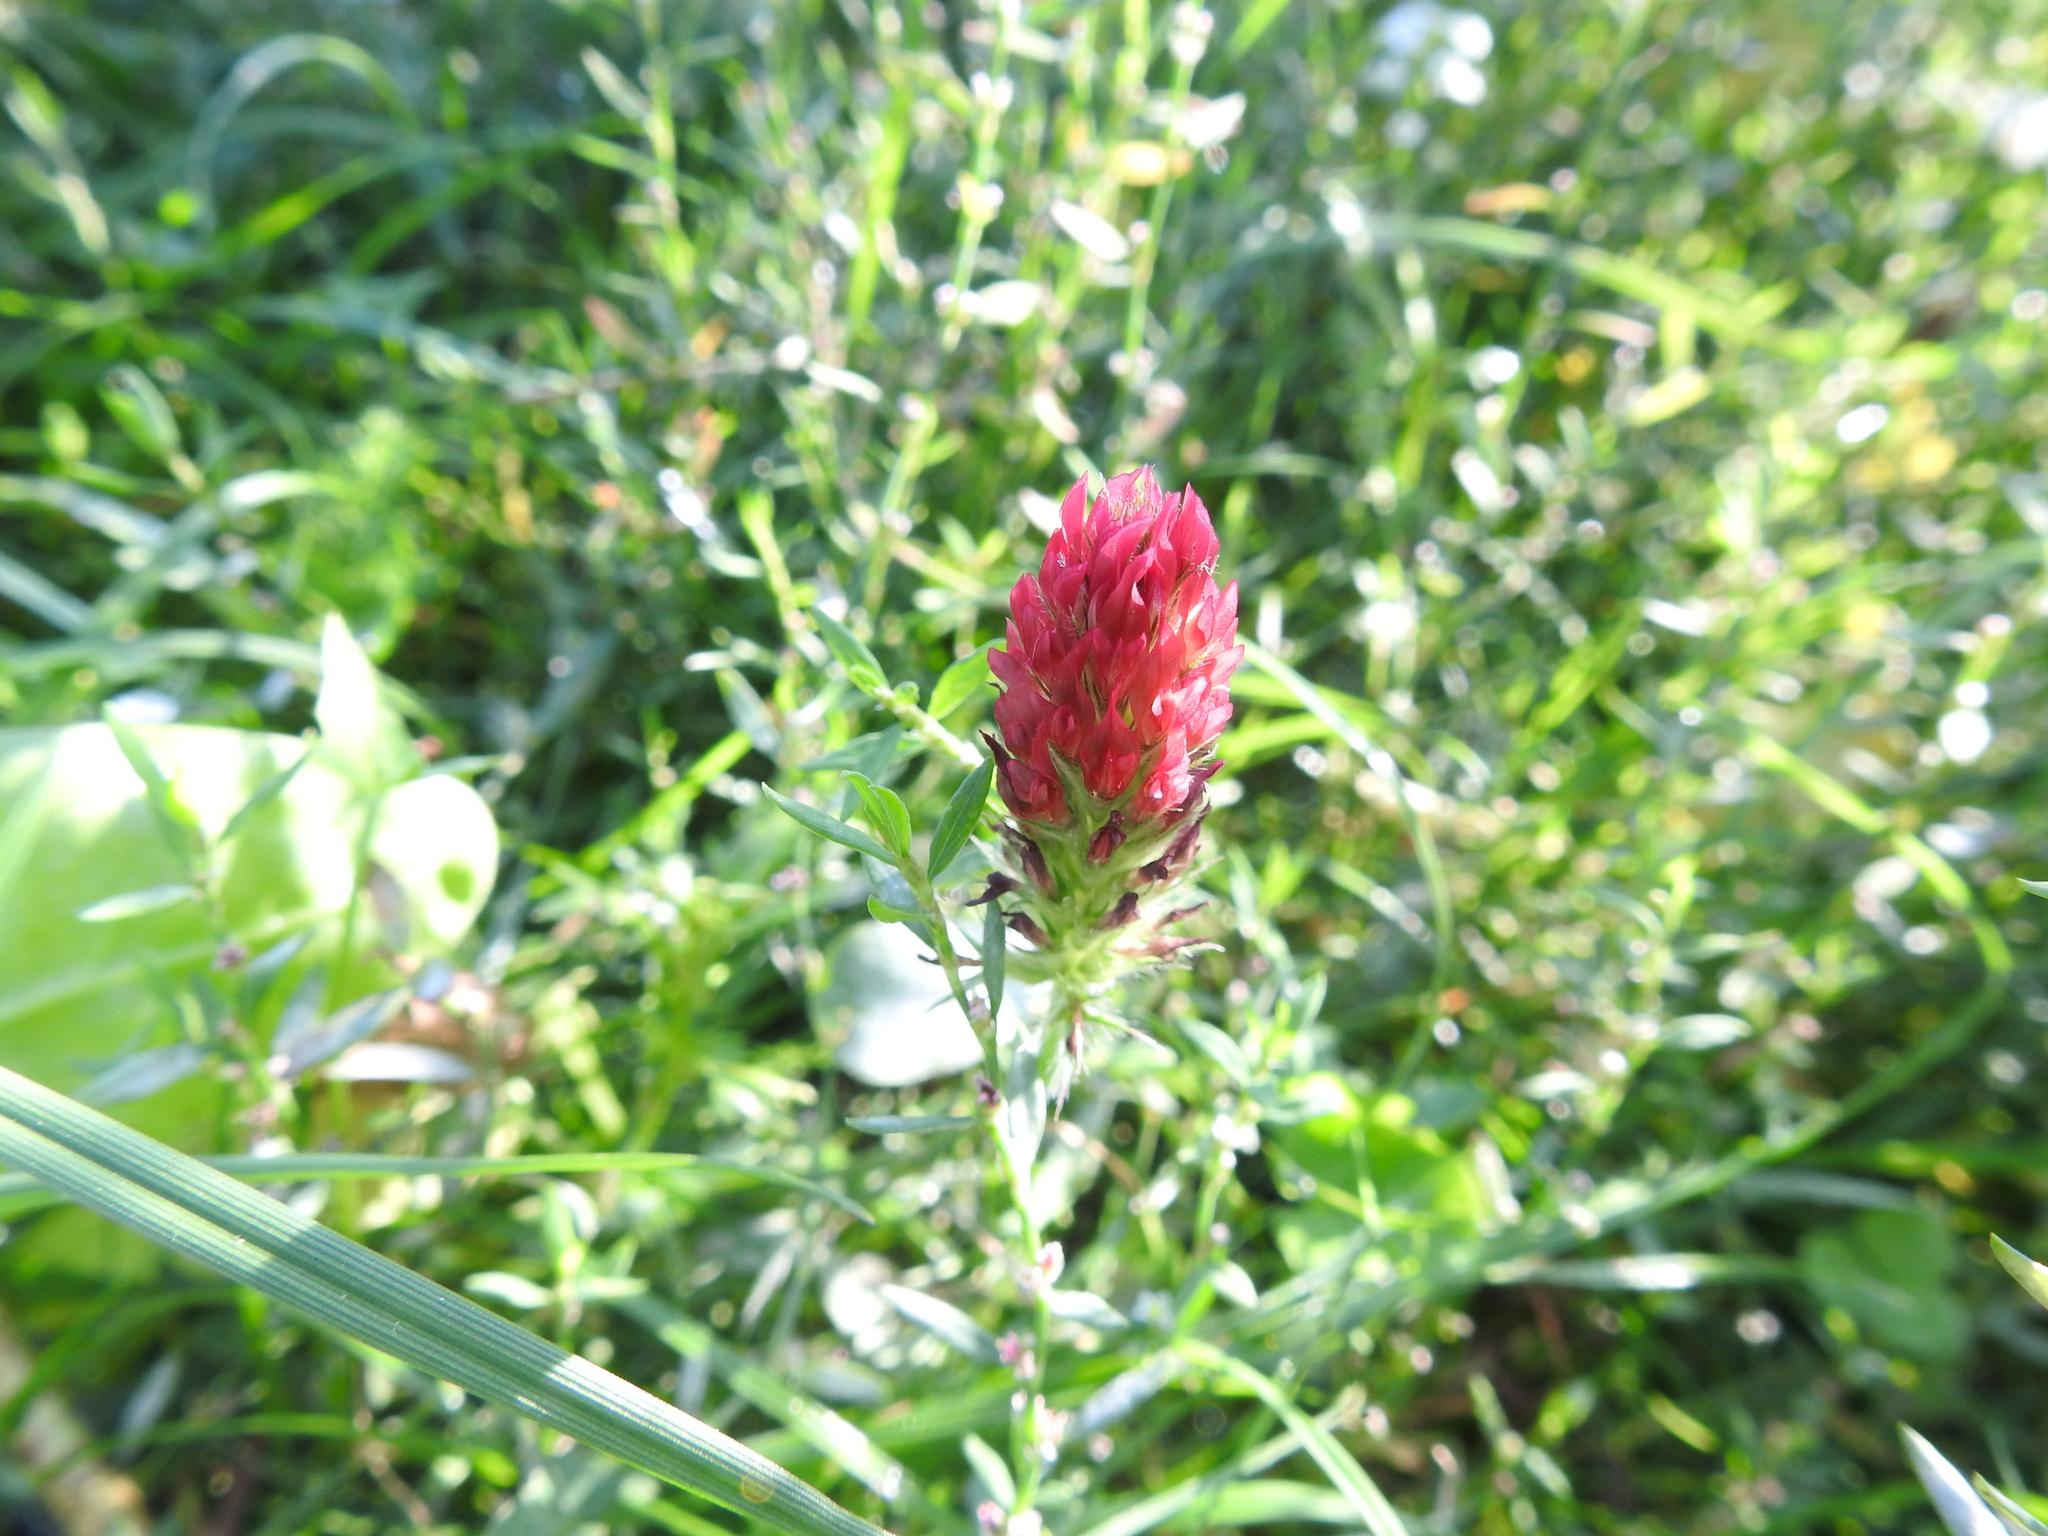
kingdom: Plantae
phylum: Tracheophyta
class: Magnoliopsida
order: Fabales
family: Fabaceae
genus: Trifolium
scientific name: Trifolium incarnatum
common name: Crimson clover
